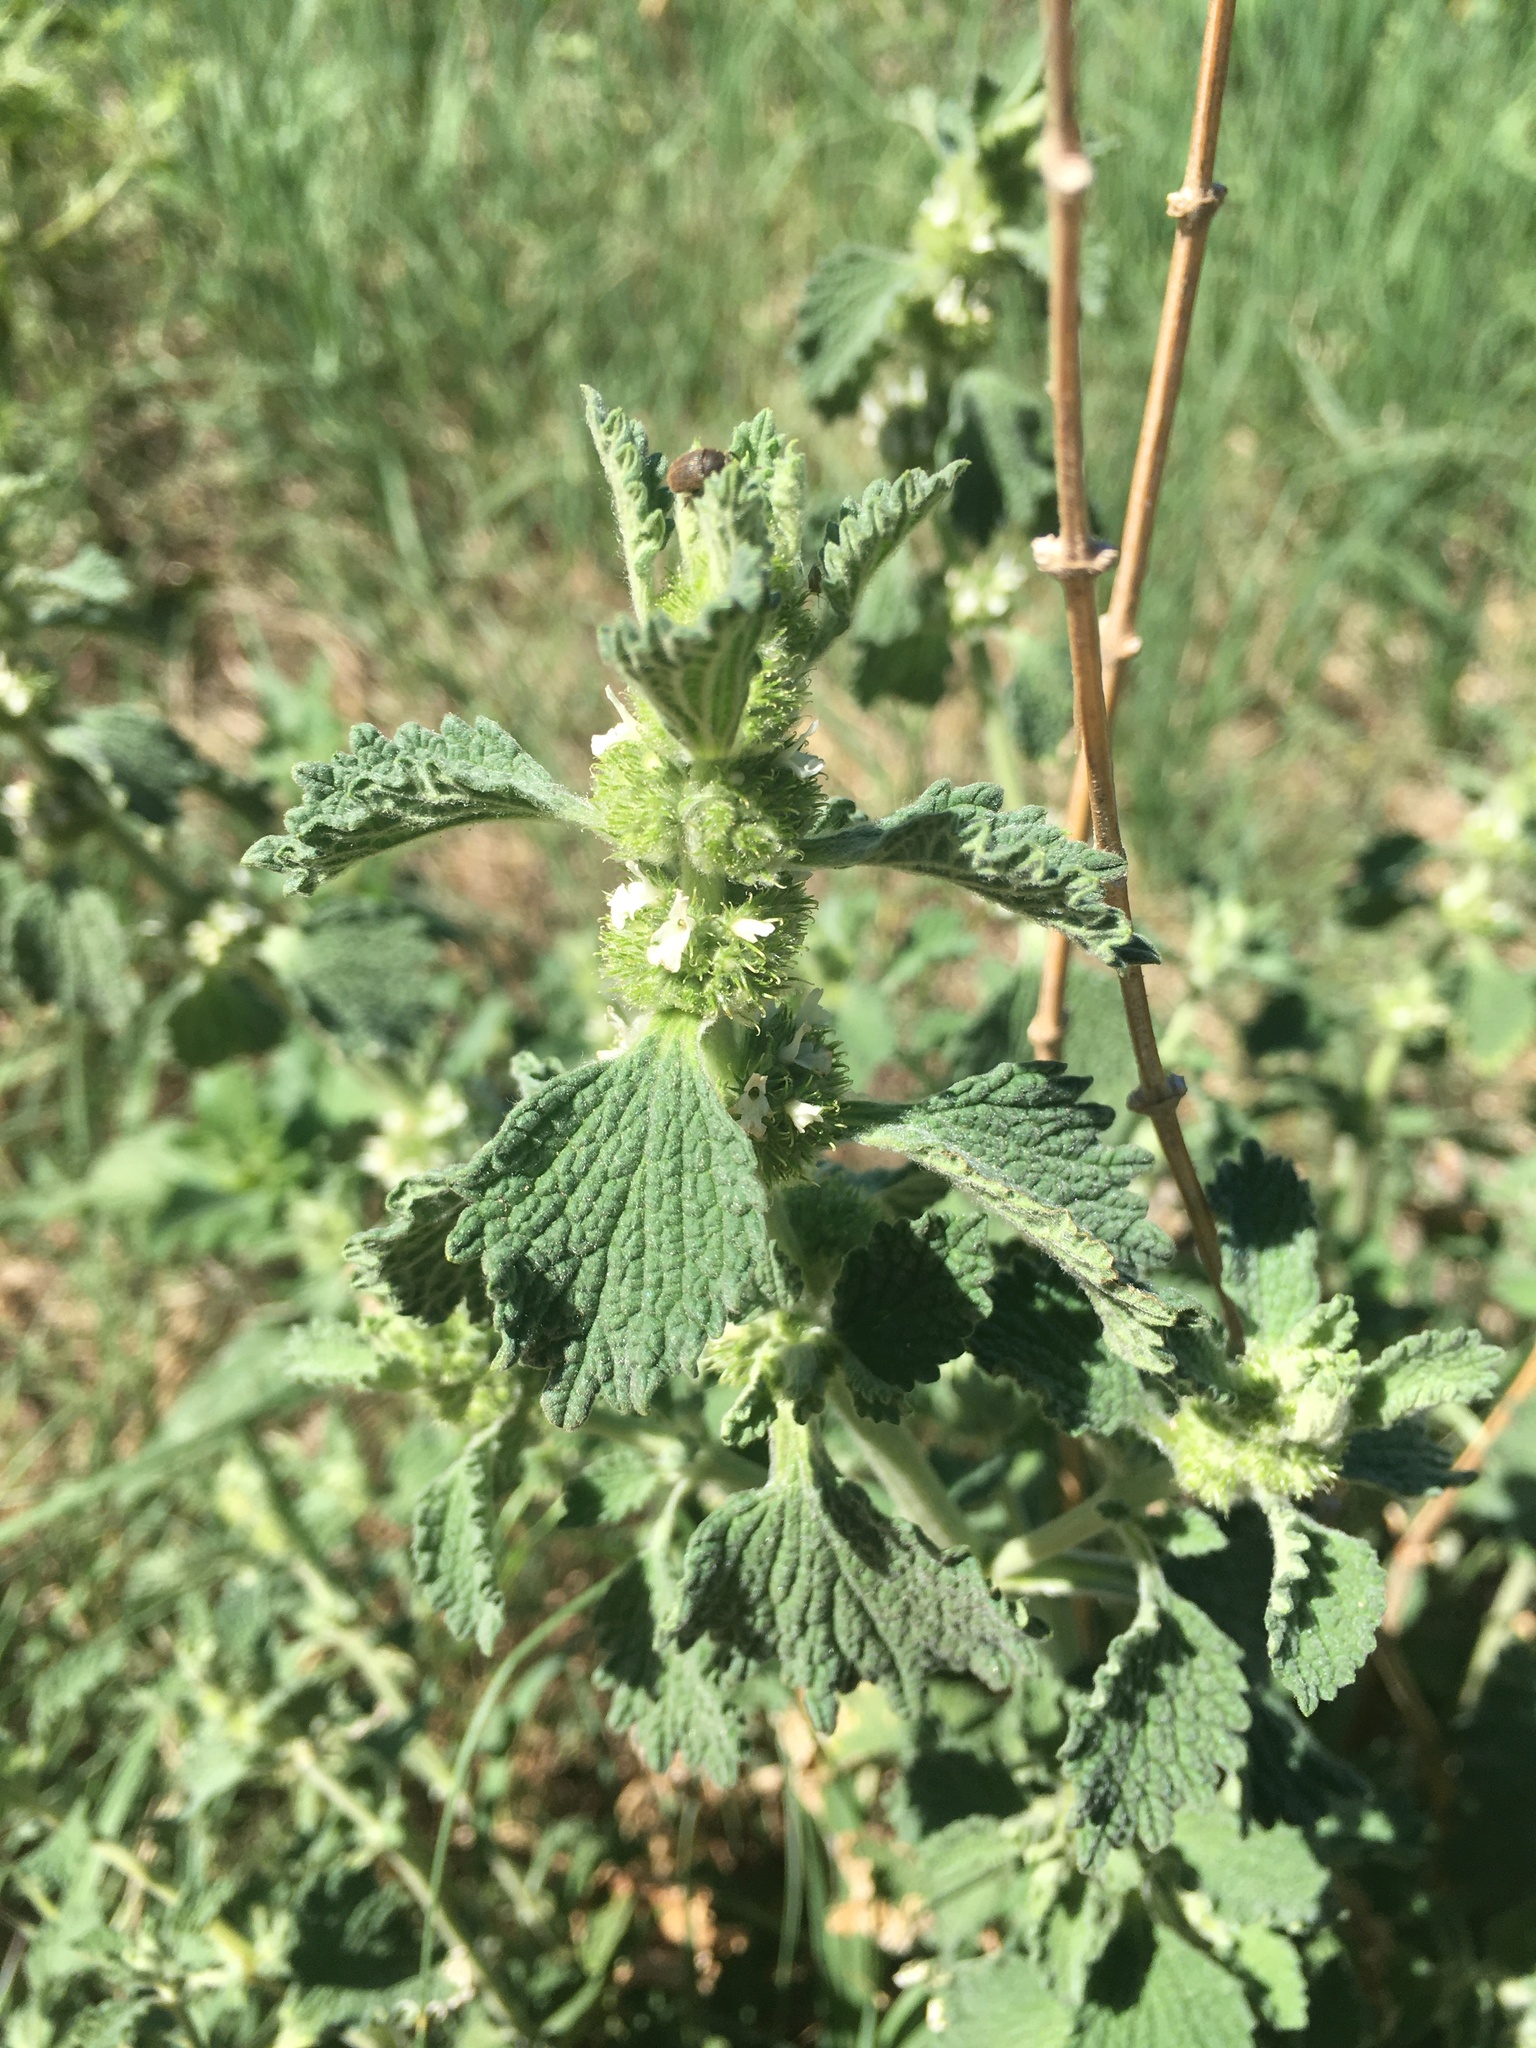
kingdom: Plantae
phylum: Tracheophyta
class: Magnoliopsida
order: Lamiales
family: Lamiaceae
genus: Marrubium
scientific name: Marrubium vulgare
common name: Horehound
